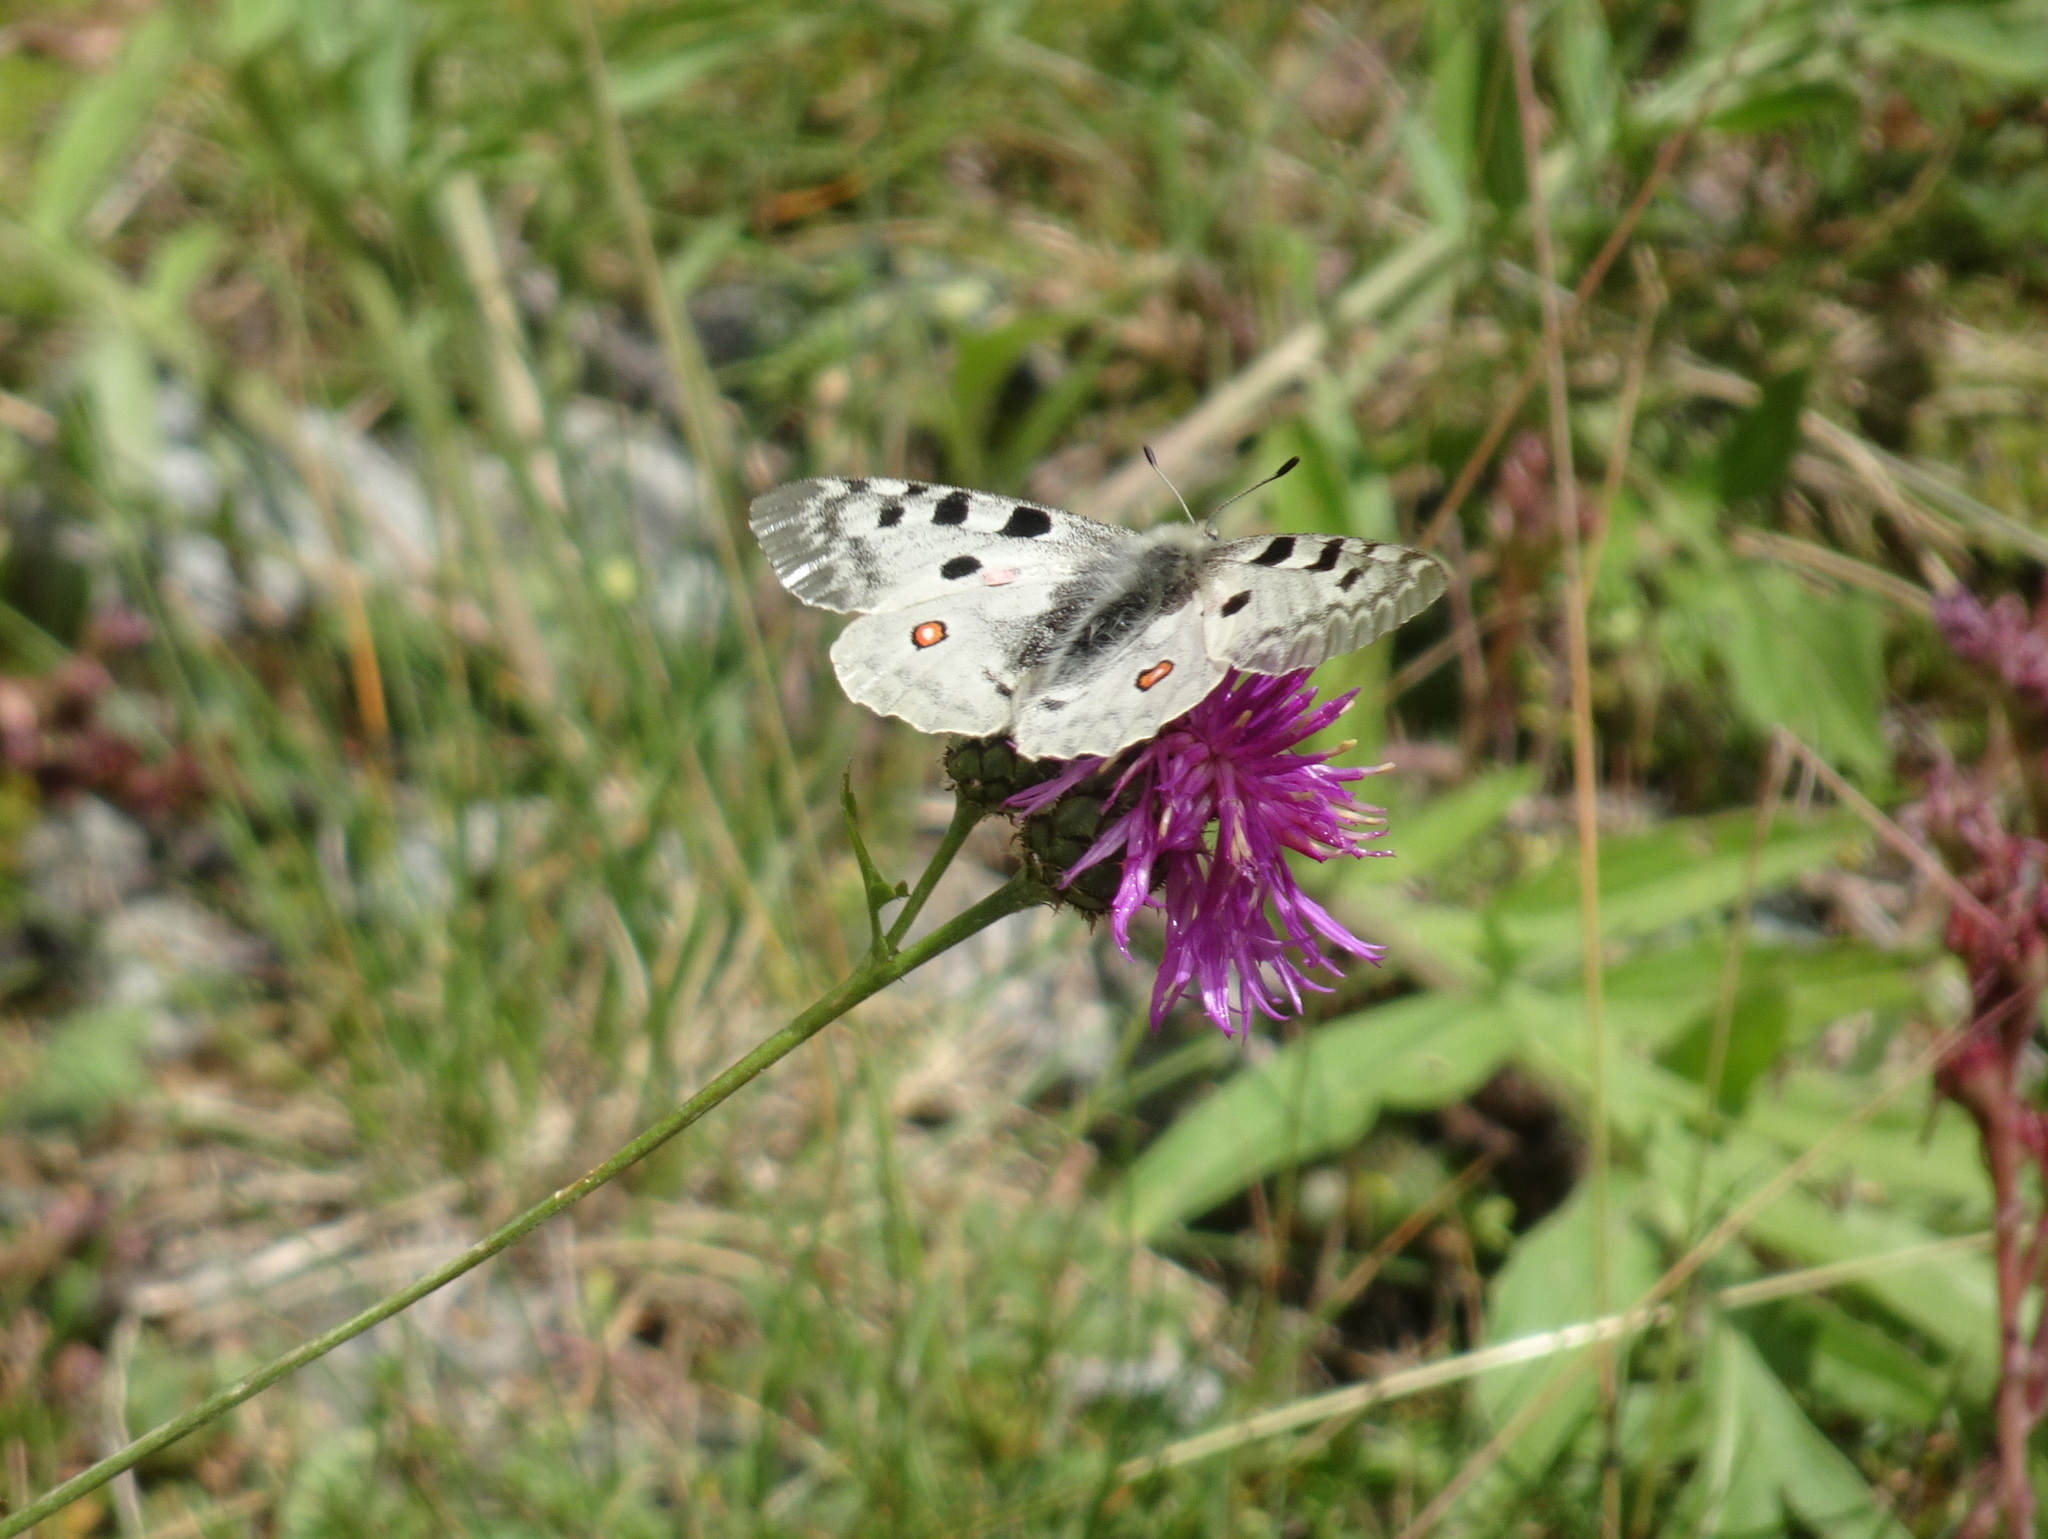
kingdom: Animalia
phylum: Arthropoda
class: Insecta
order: Lepidoptera
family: Papilionidae
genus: Parnassius
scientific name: Parnassius apollo
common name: Apollo
